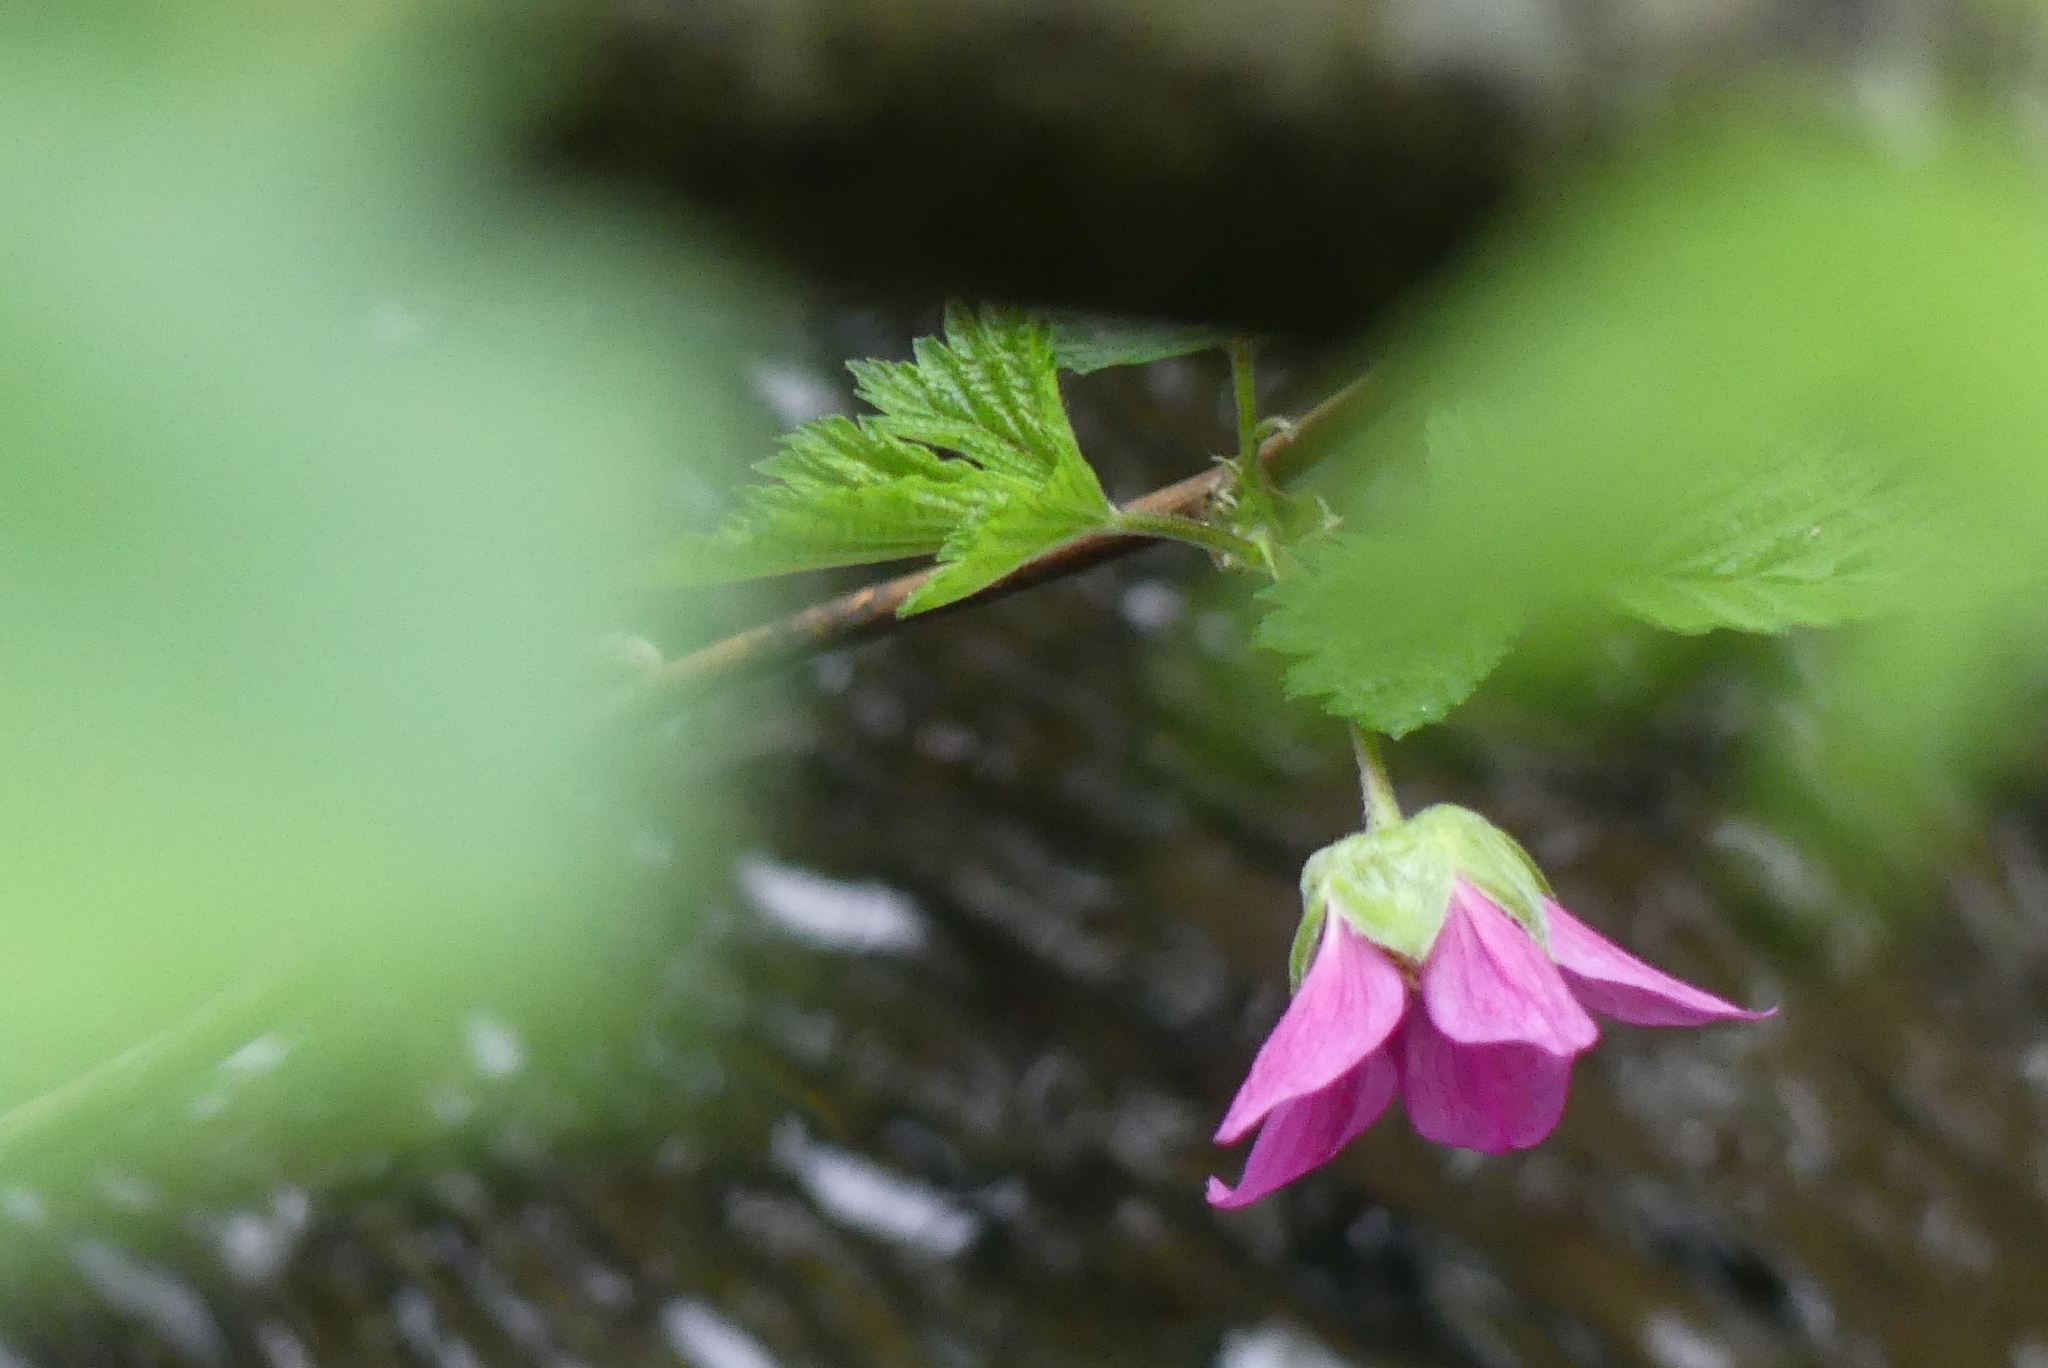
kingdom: Plantae
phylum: Tracheophyta
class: Magnoliopsida
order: Rosales
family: Rosaceae
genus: Rubus
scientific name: Rubus spectabilis
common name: Salmonberry
